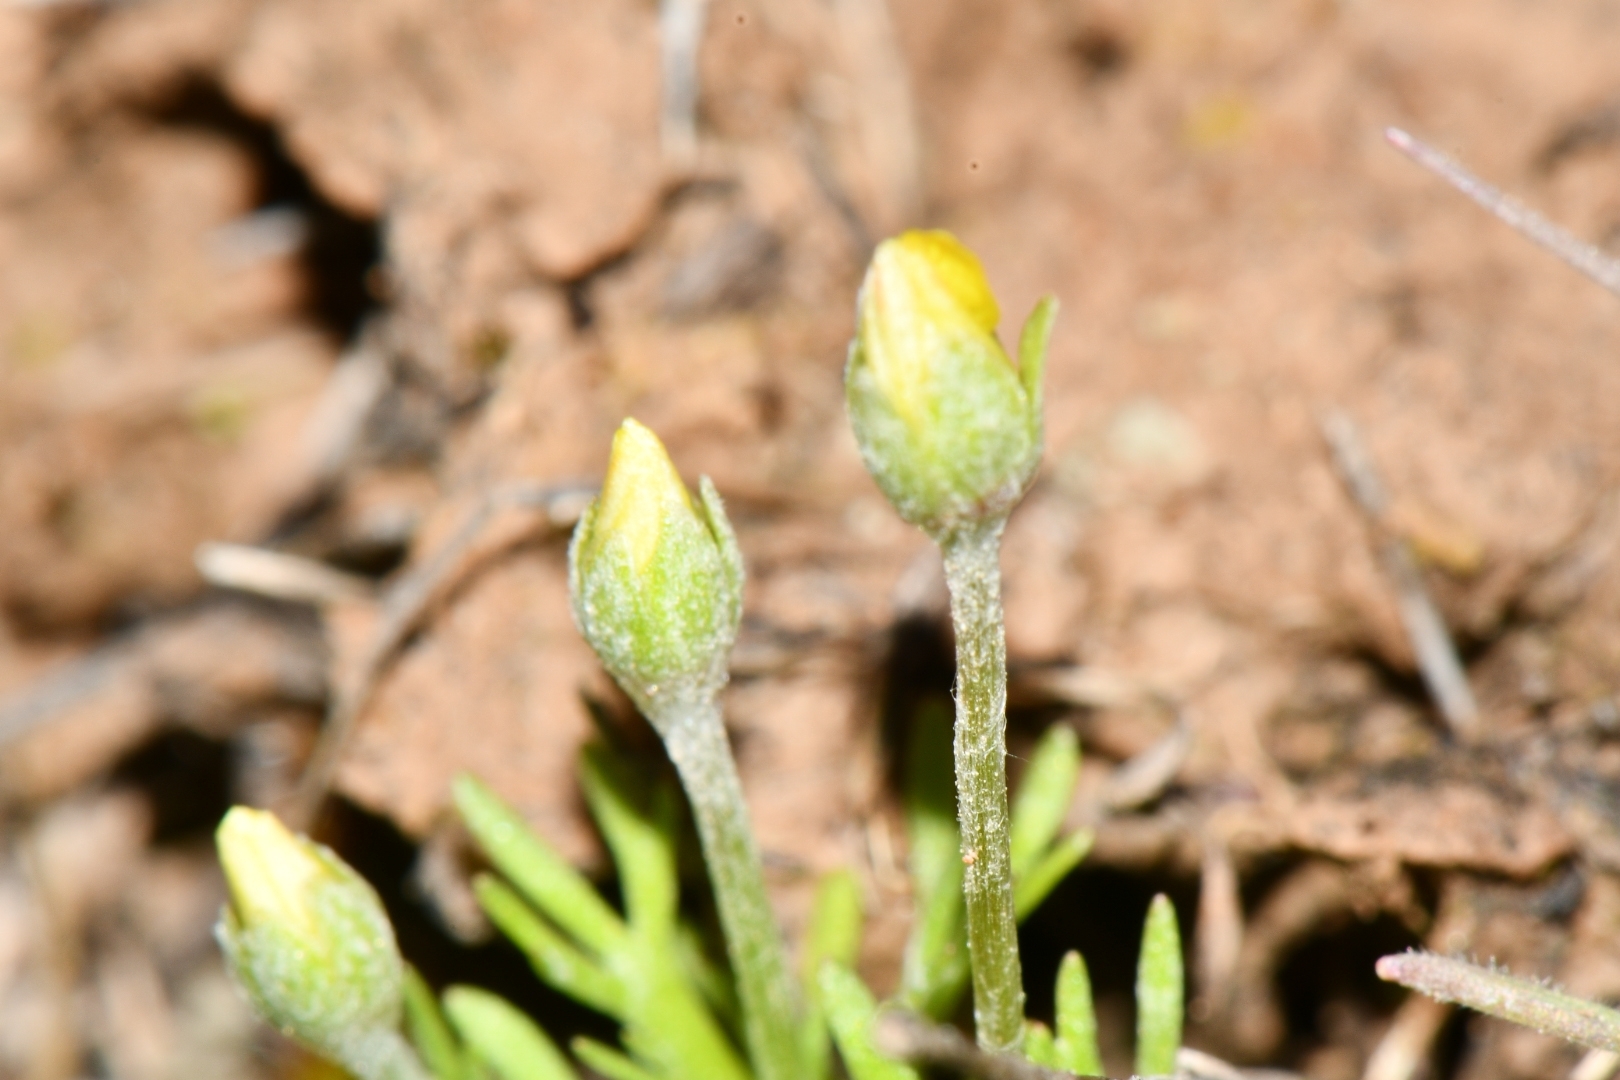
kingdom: Plantae
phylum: Tracheophyta
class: Magnoliopsida
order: Ranunculales
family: Ranunculaceae
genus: Ceratocephala
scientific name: Ceratocephala orthoceras
